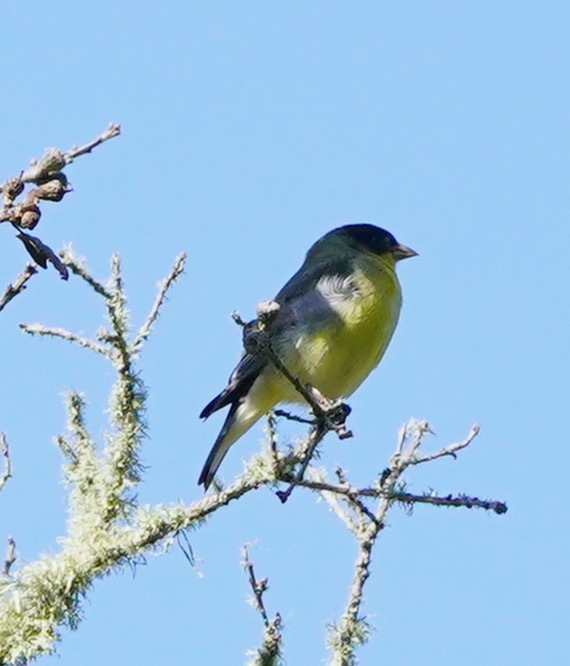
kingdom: Animalia
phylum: Chordata
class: Aves
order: Passeriformes
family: Fringillidae
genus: Spinus
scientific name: Spinus psaltria
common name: Lesser goldfinch
